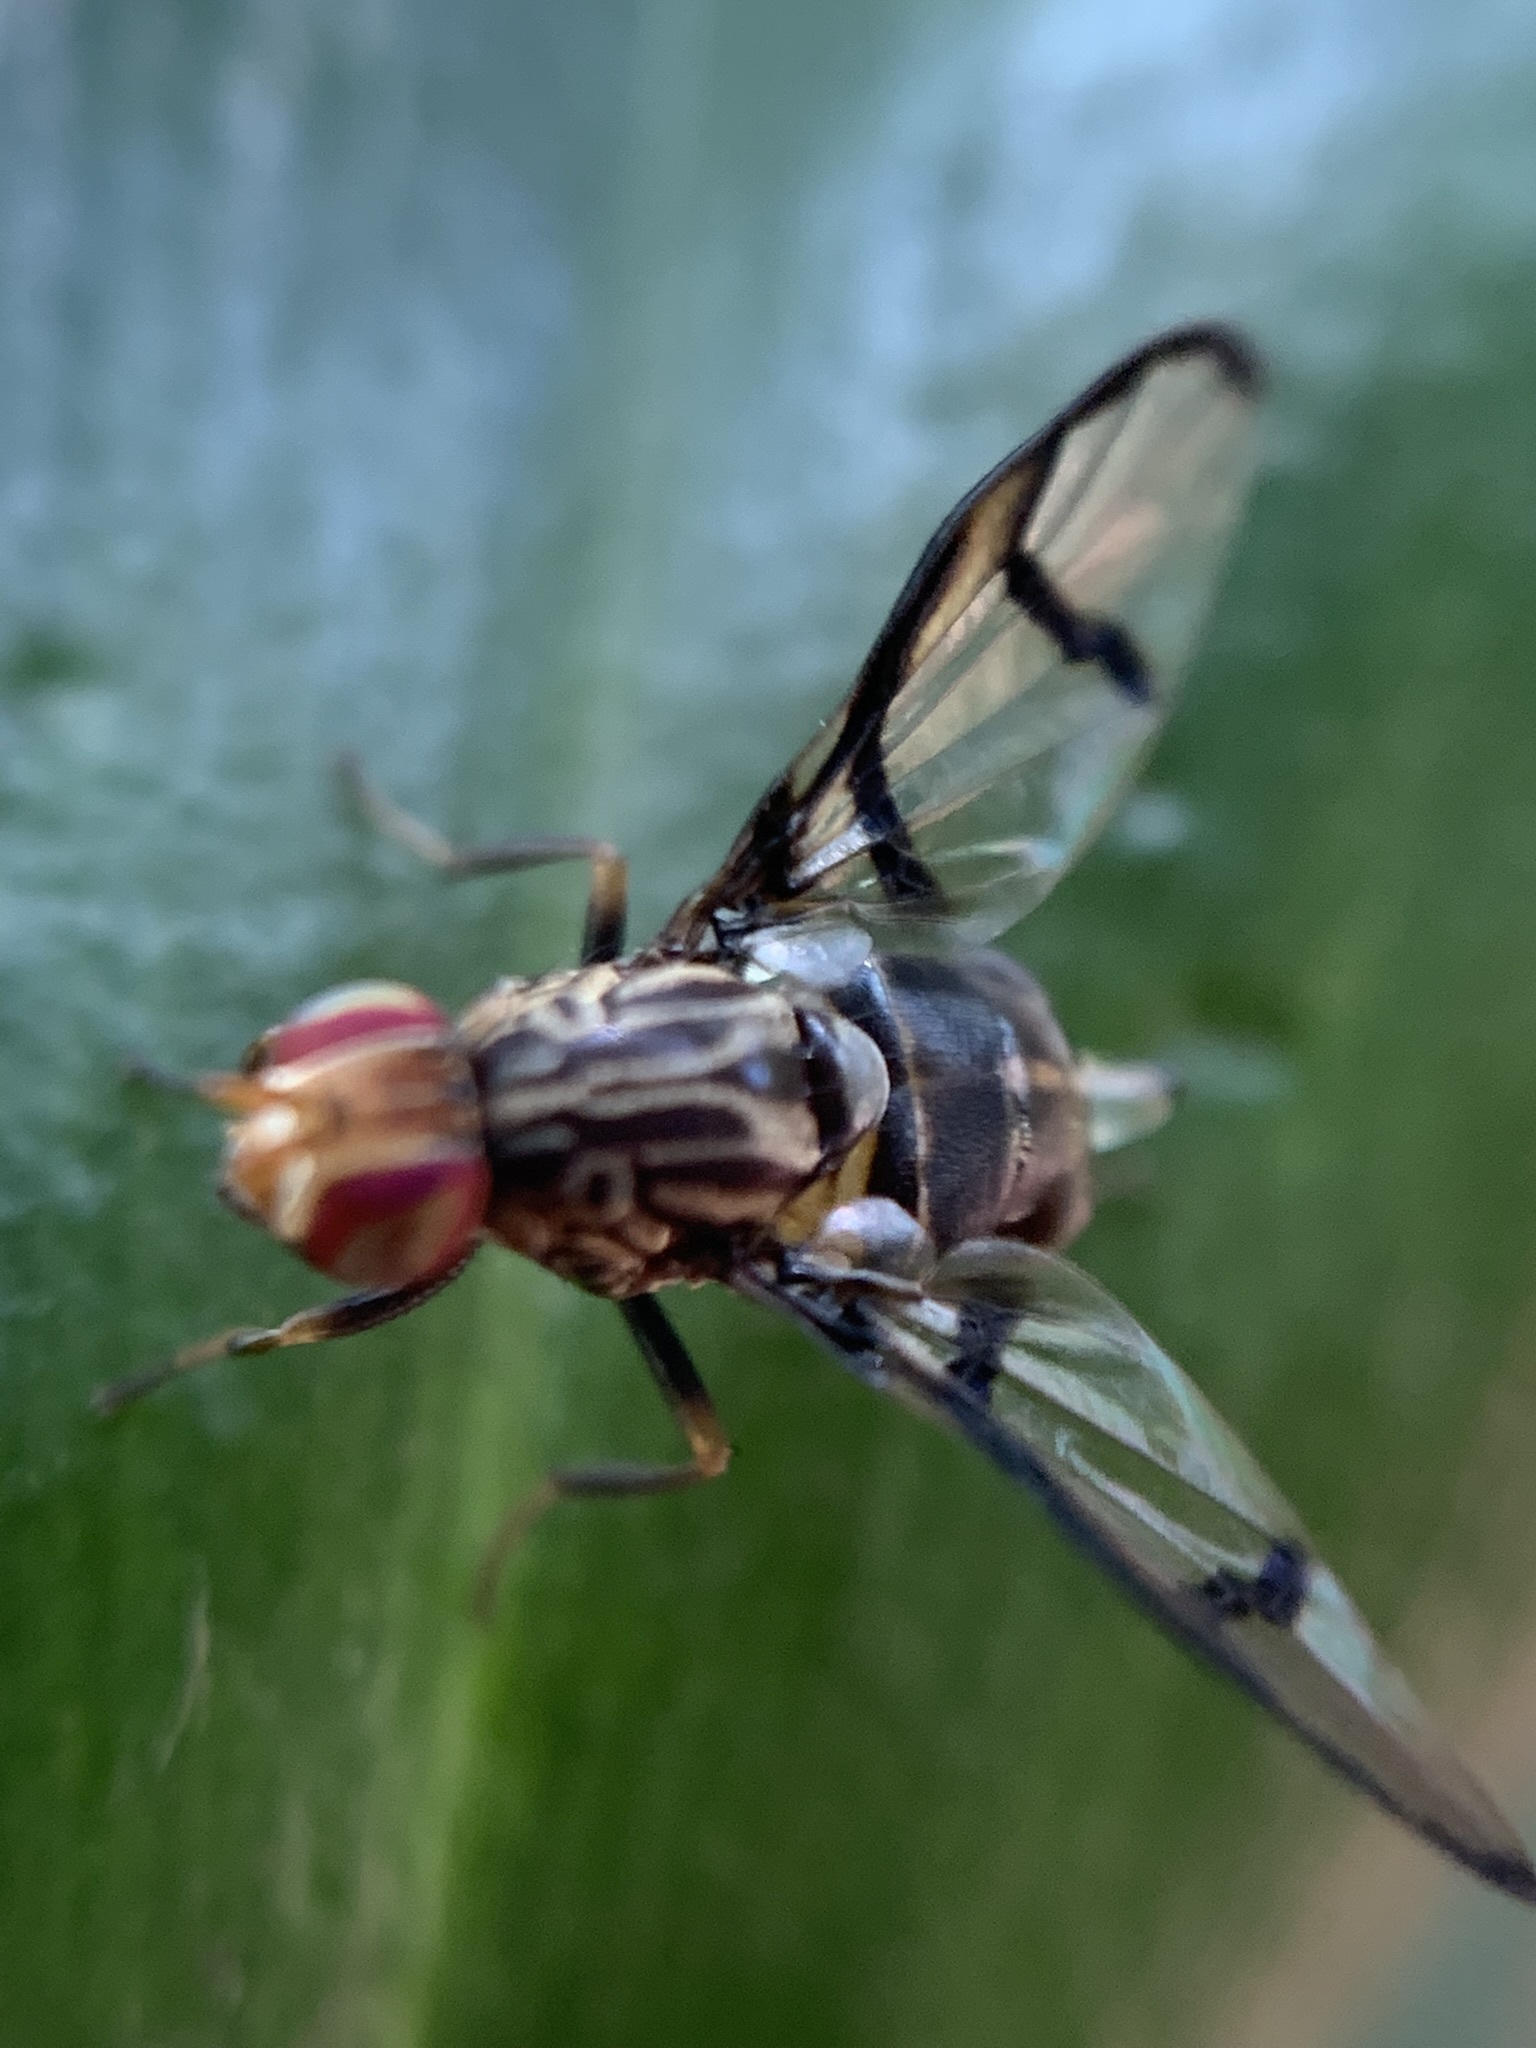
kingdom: Animalia
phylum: Arthropoda
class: Insecta
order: Diptera
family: Ulidiidae
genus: Neomyennis
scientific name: Neomyennis appendiculata
